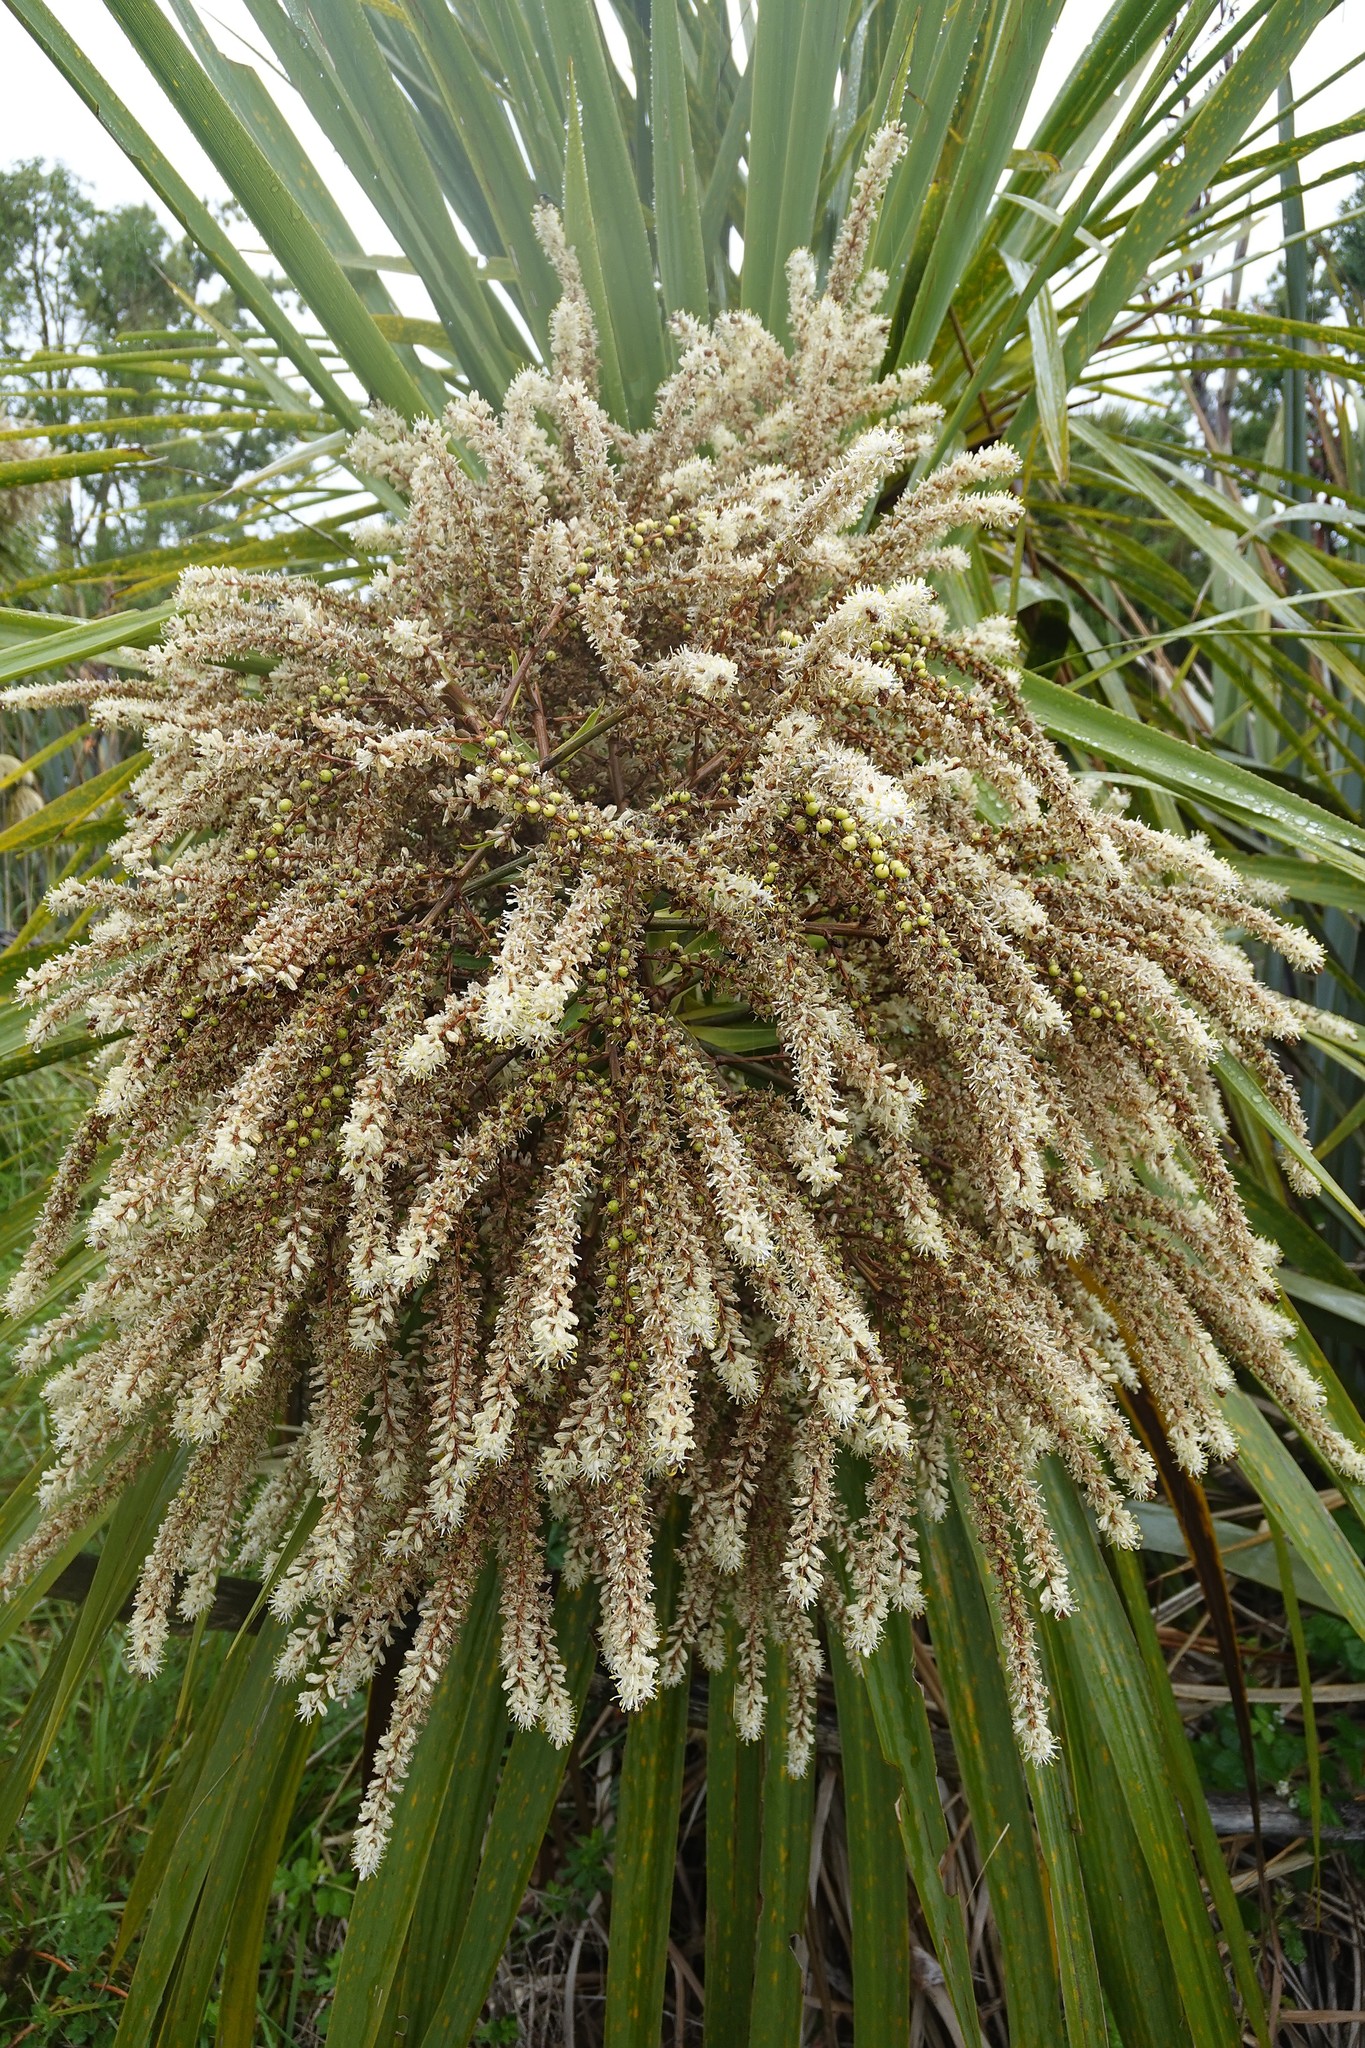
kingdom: Plantae
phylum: Tracheophyta
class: Liliopsida
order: Asparagales
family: Asparagaceae
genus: Cordyline
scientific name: Cordyline australis
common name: Cabbage-palm
